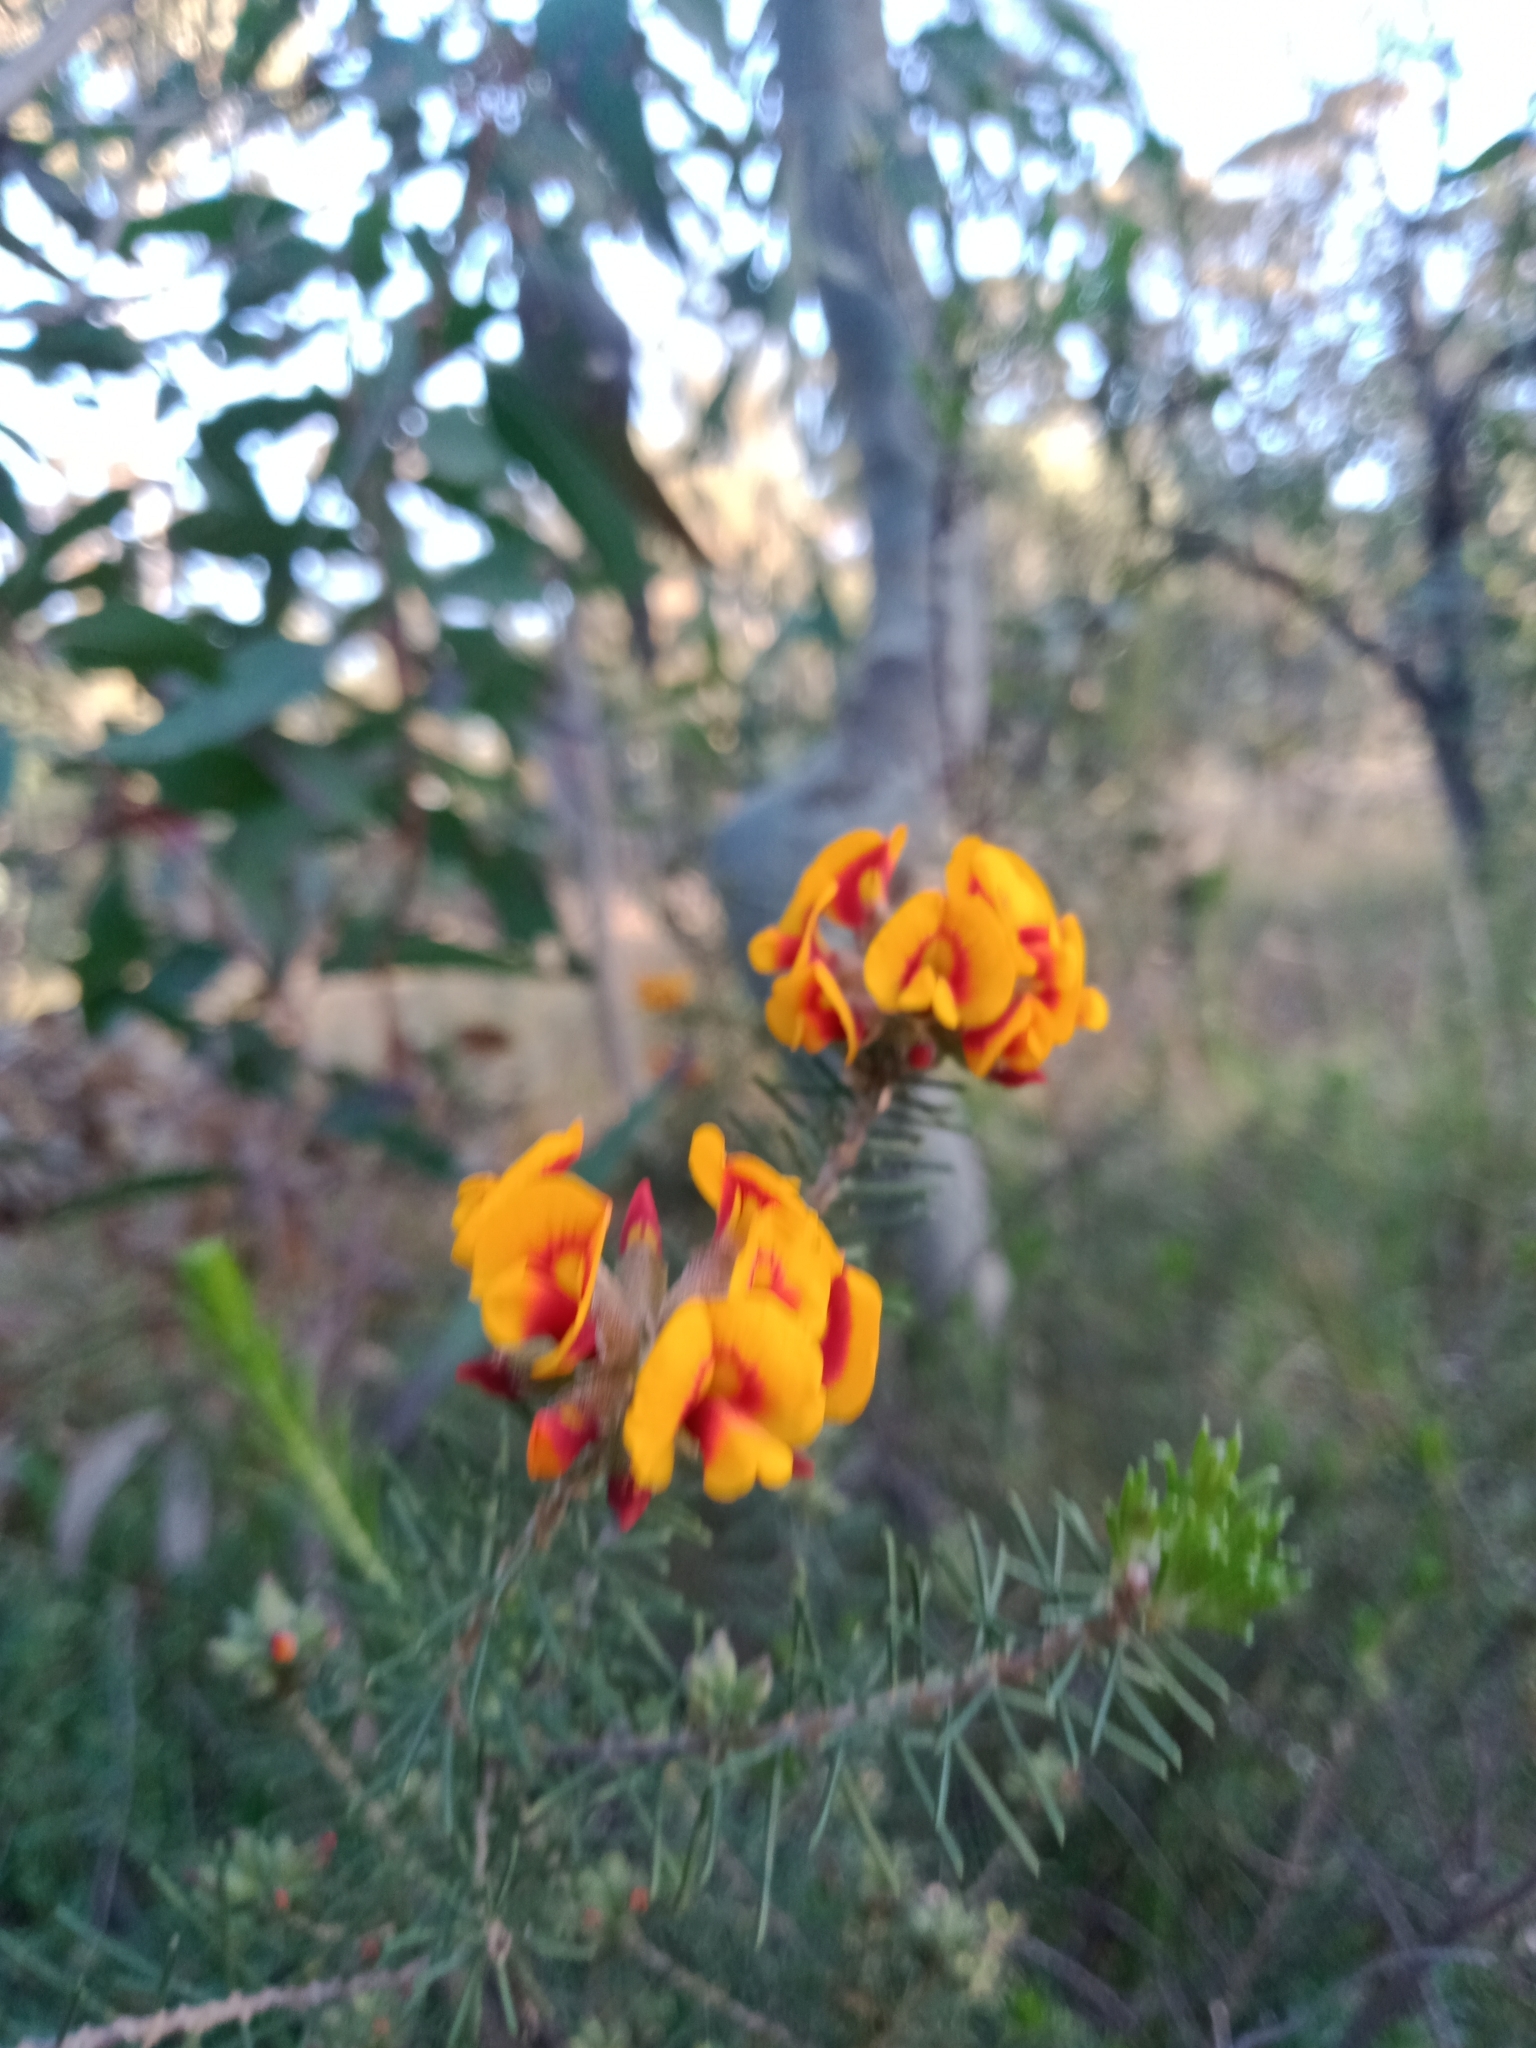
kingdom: Plantae
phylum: Tracheophyta
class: Magnoliopsida
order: Fabales
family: Fabaceae
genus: Dillwynia
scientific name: Dillwynia cinerascens
